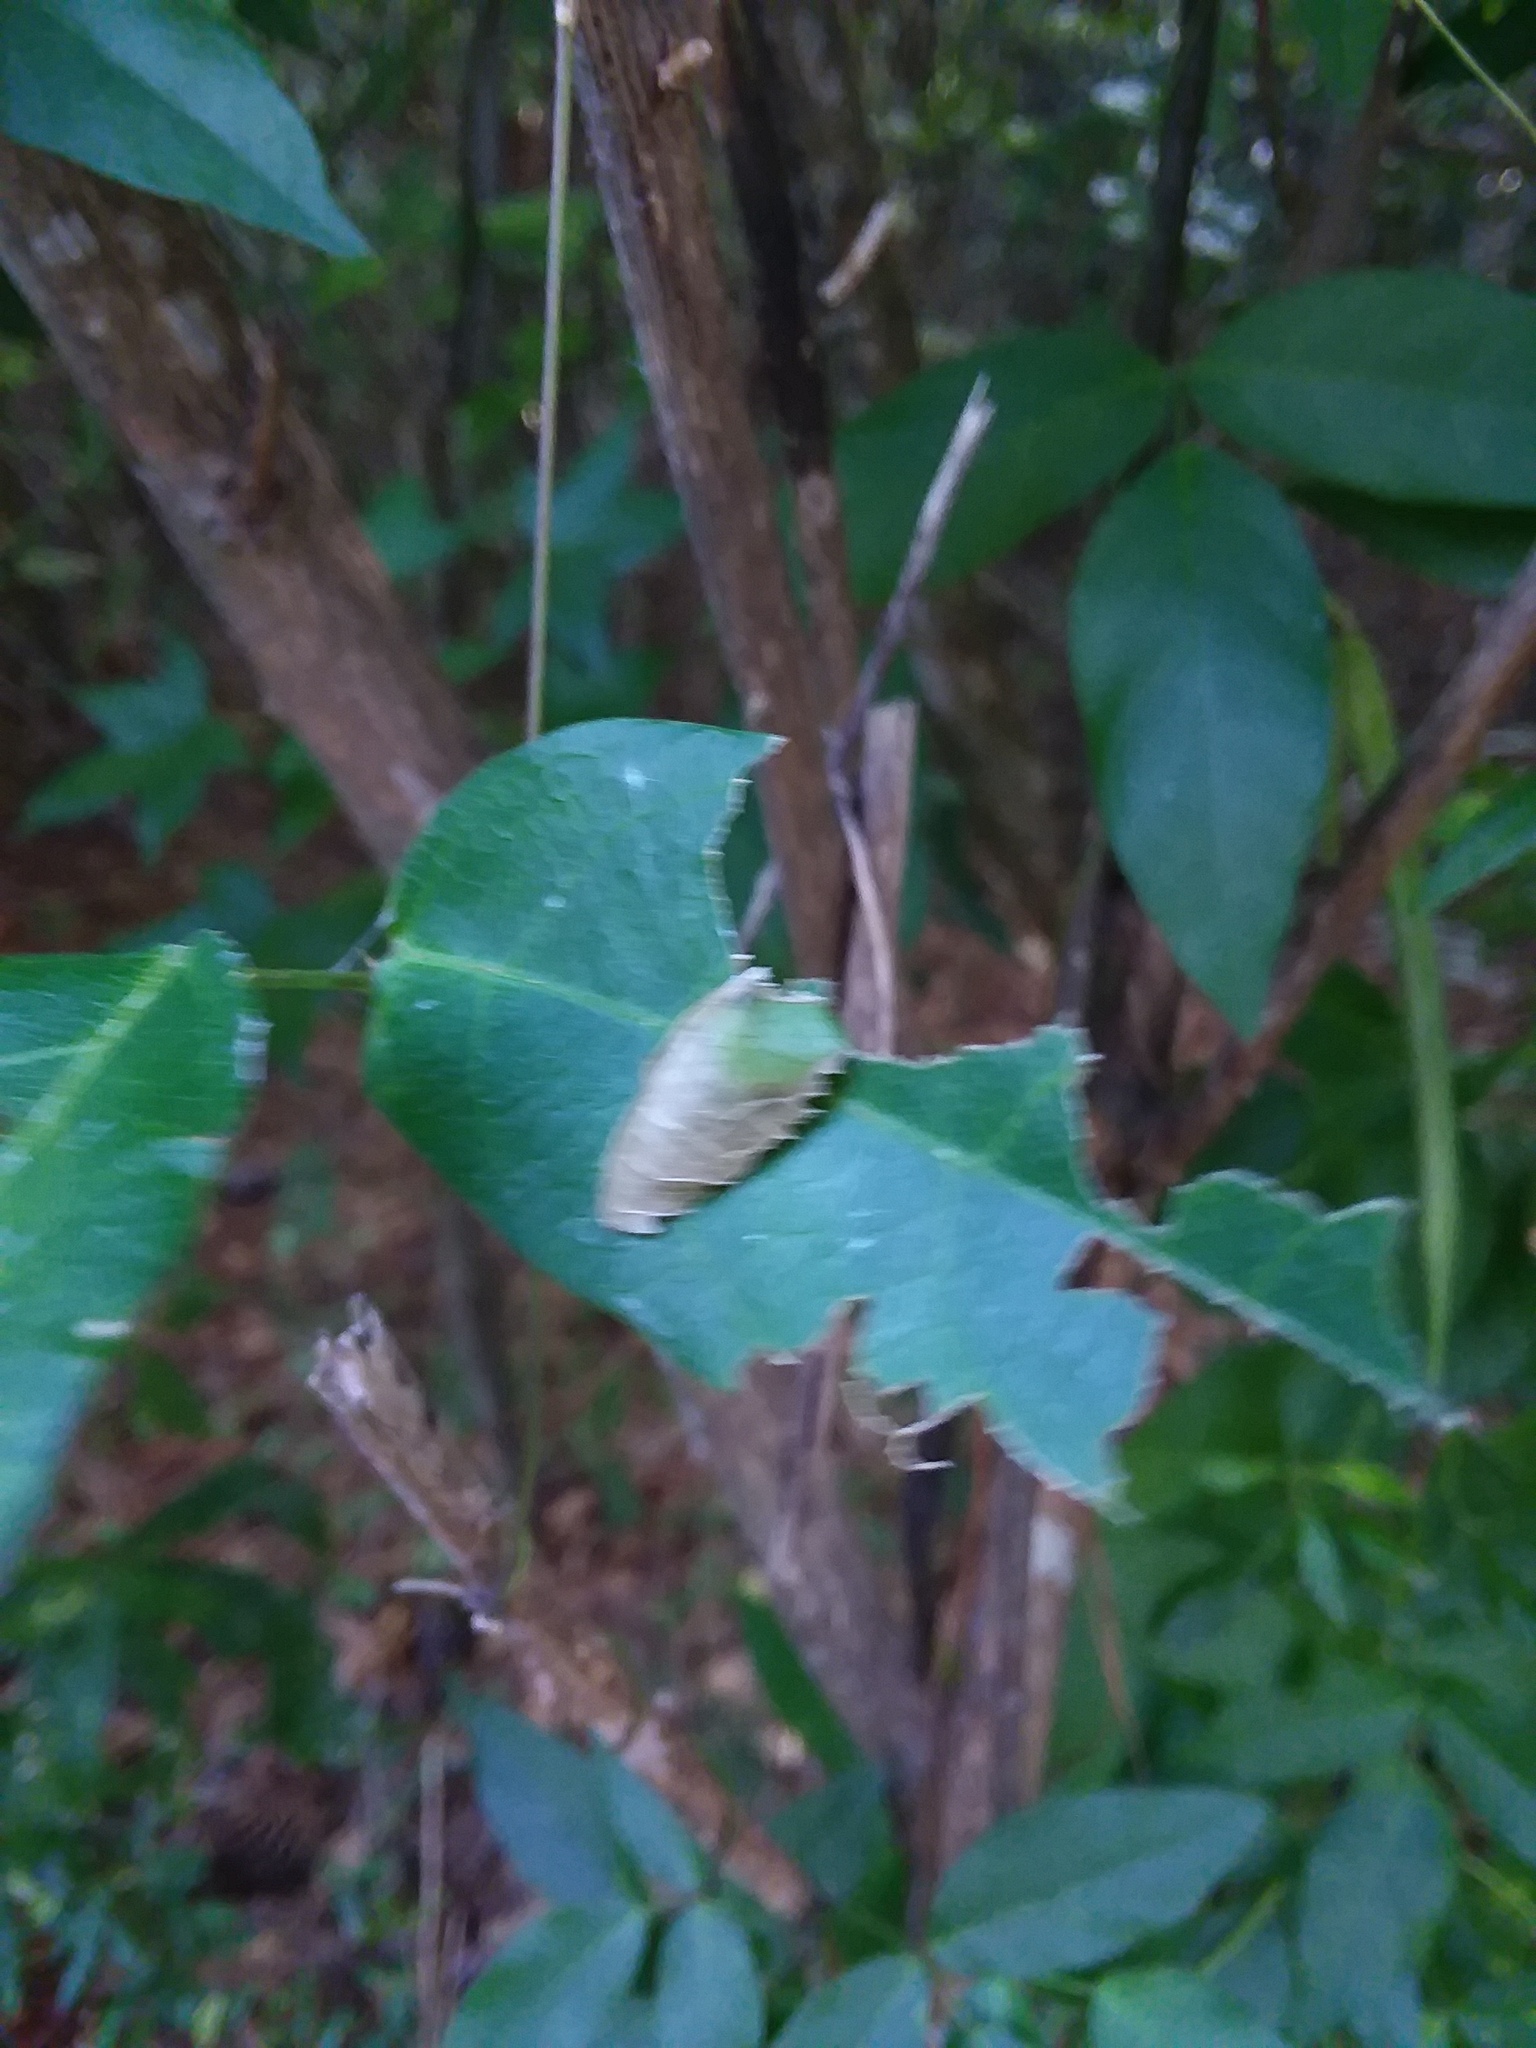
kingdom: Animalia
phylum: Arthropoda
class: Insecta
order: Lepidoptera
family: Hesperiidae
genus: Urbanus
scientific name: Urbanus proteus
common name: Long-tailed skipper
